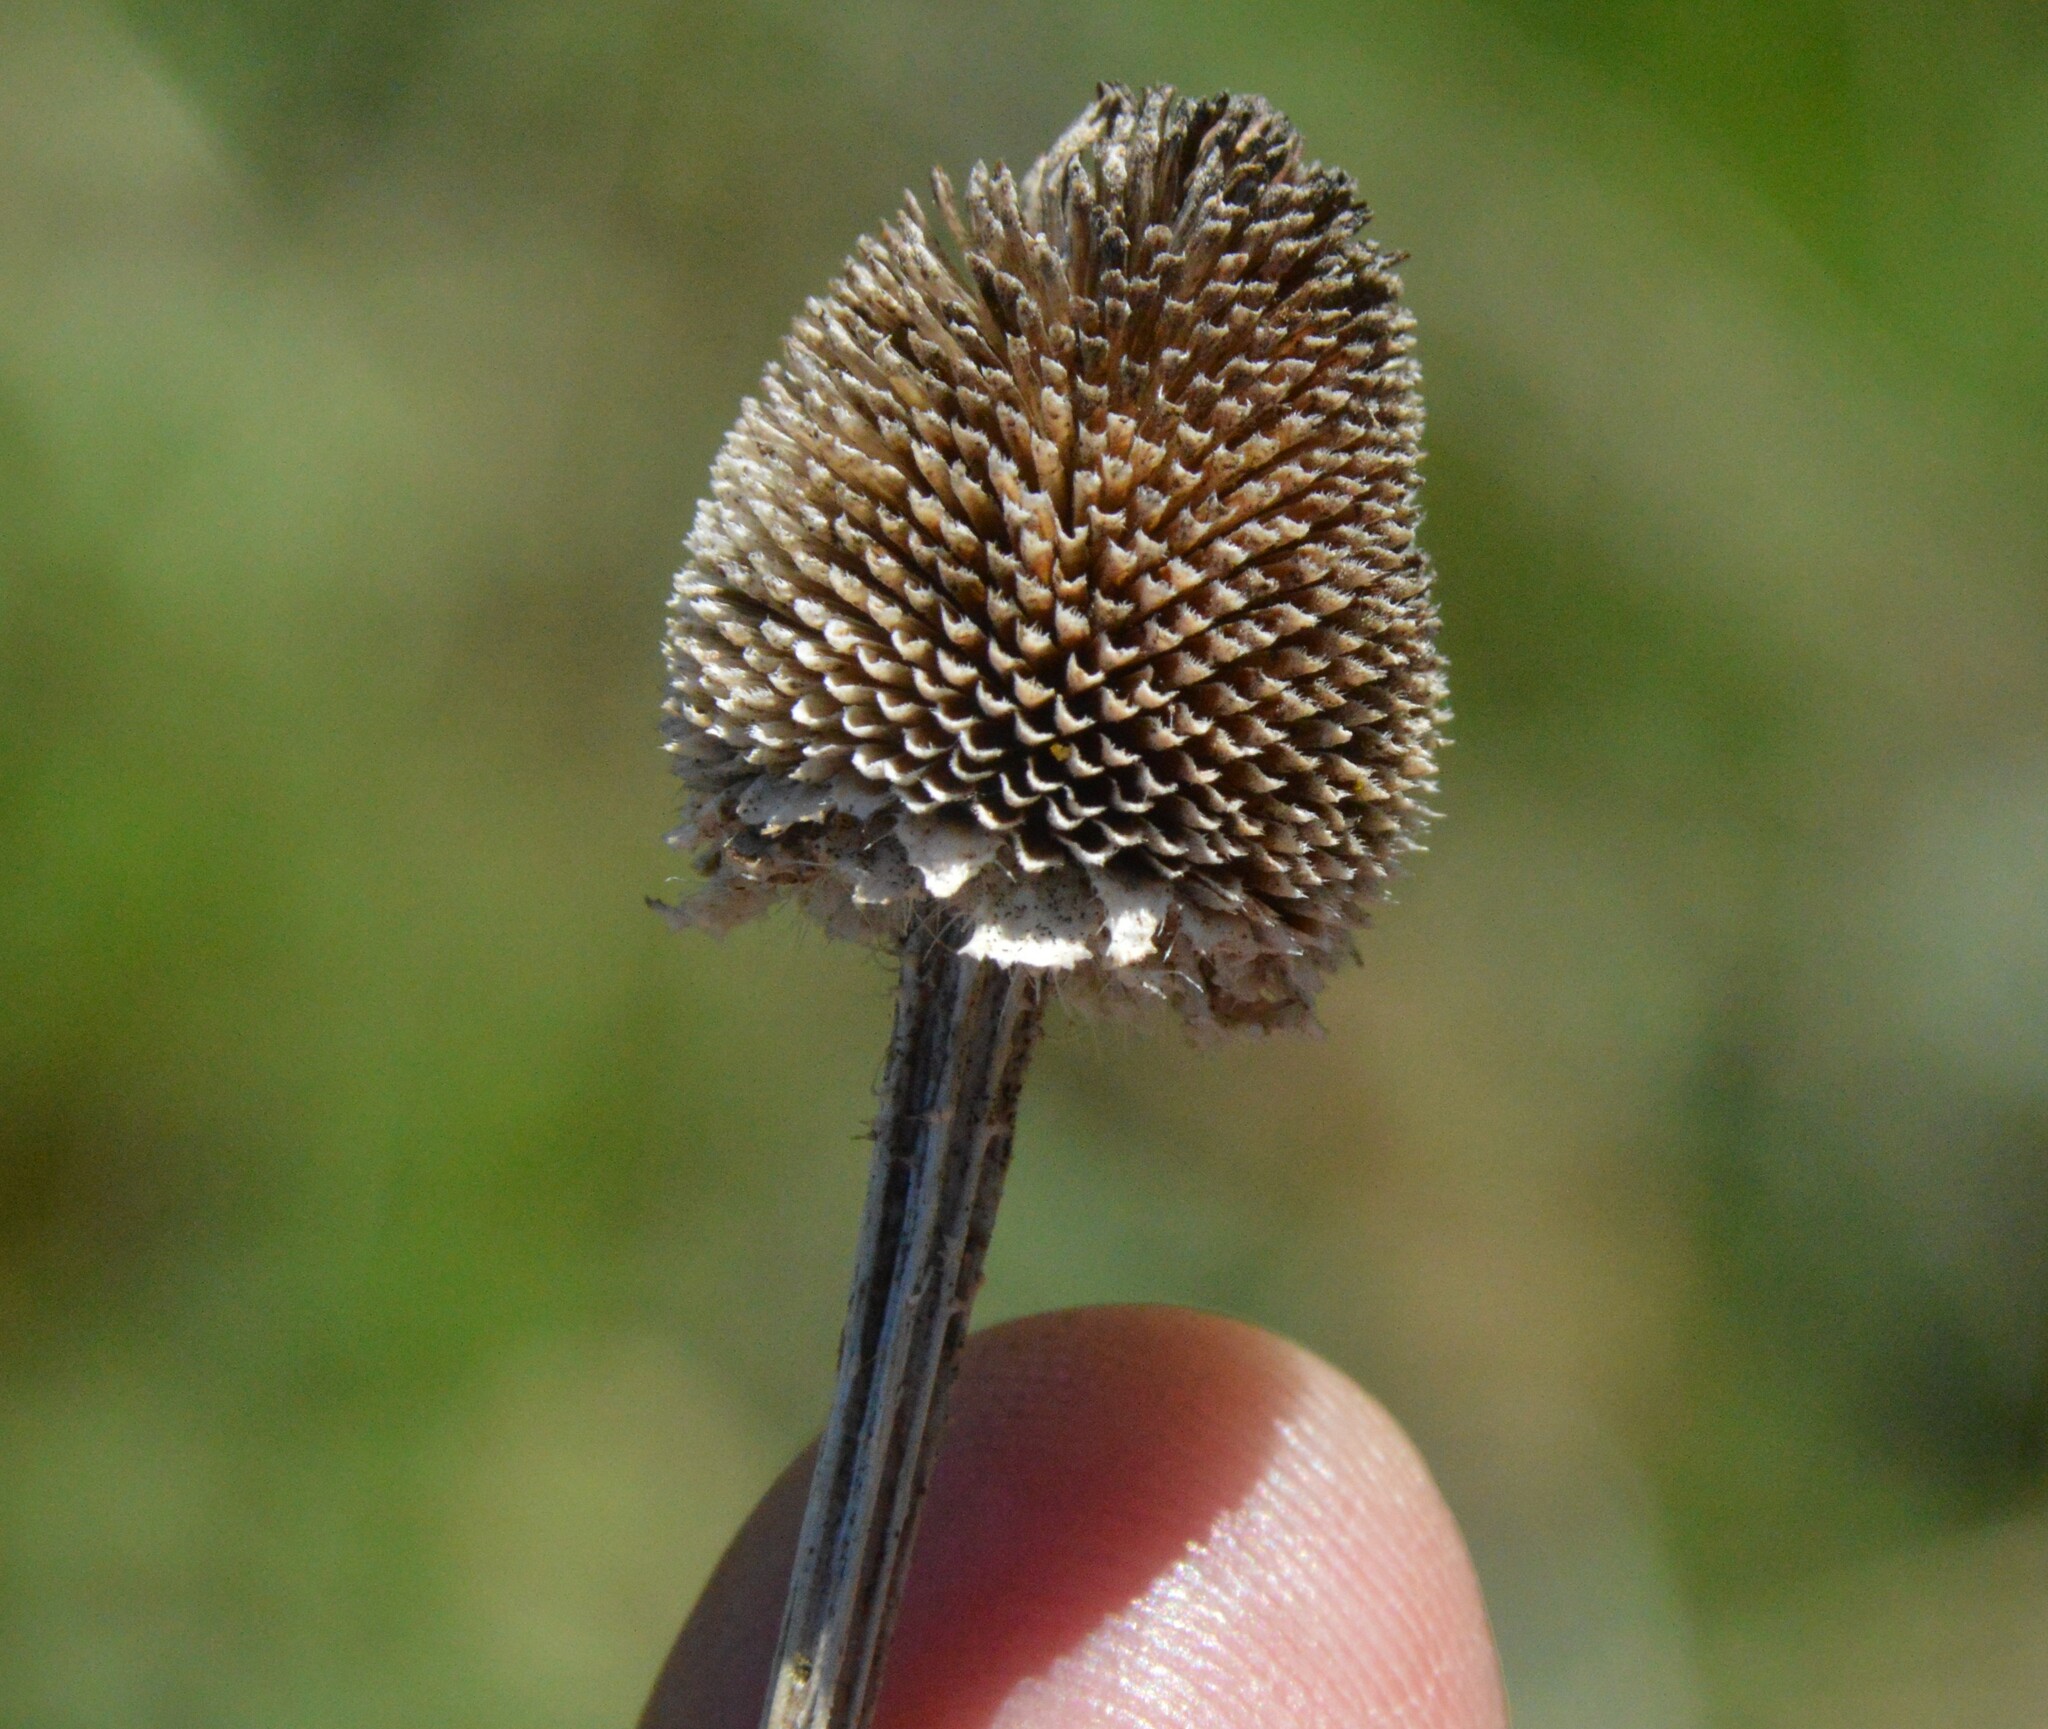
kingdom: Plantae
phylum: Tracheophyta
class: Magnoliopsida
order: Asterales
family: Asteraceae
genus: Rudbeckia
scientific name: Rudbeckia hirta
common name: Black-eyed-susan
